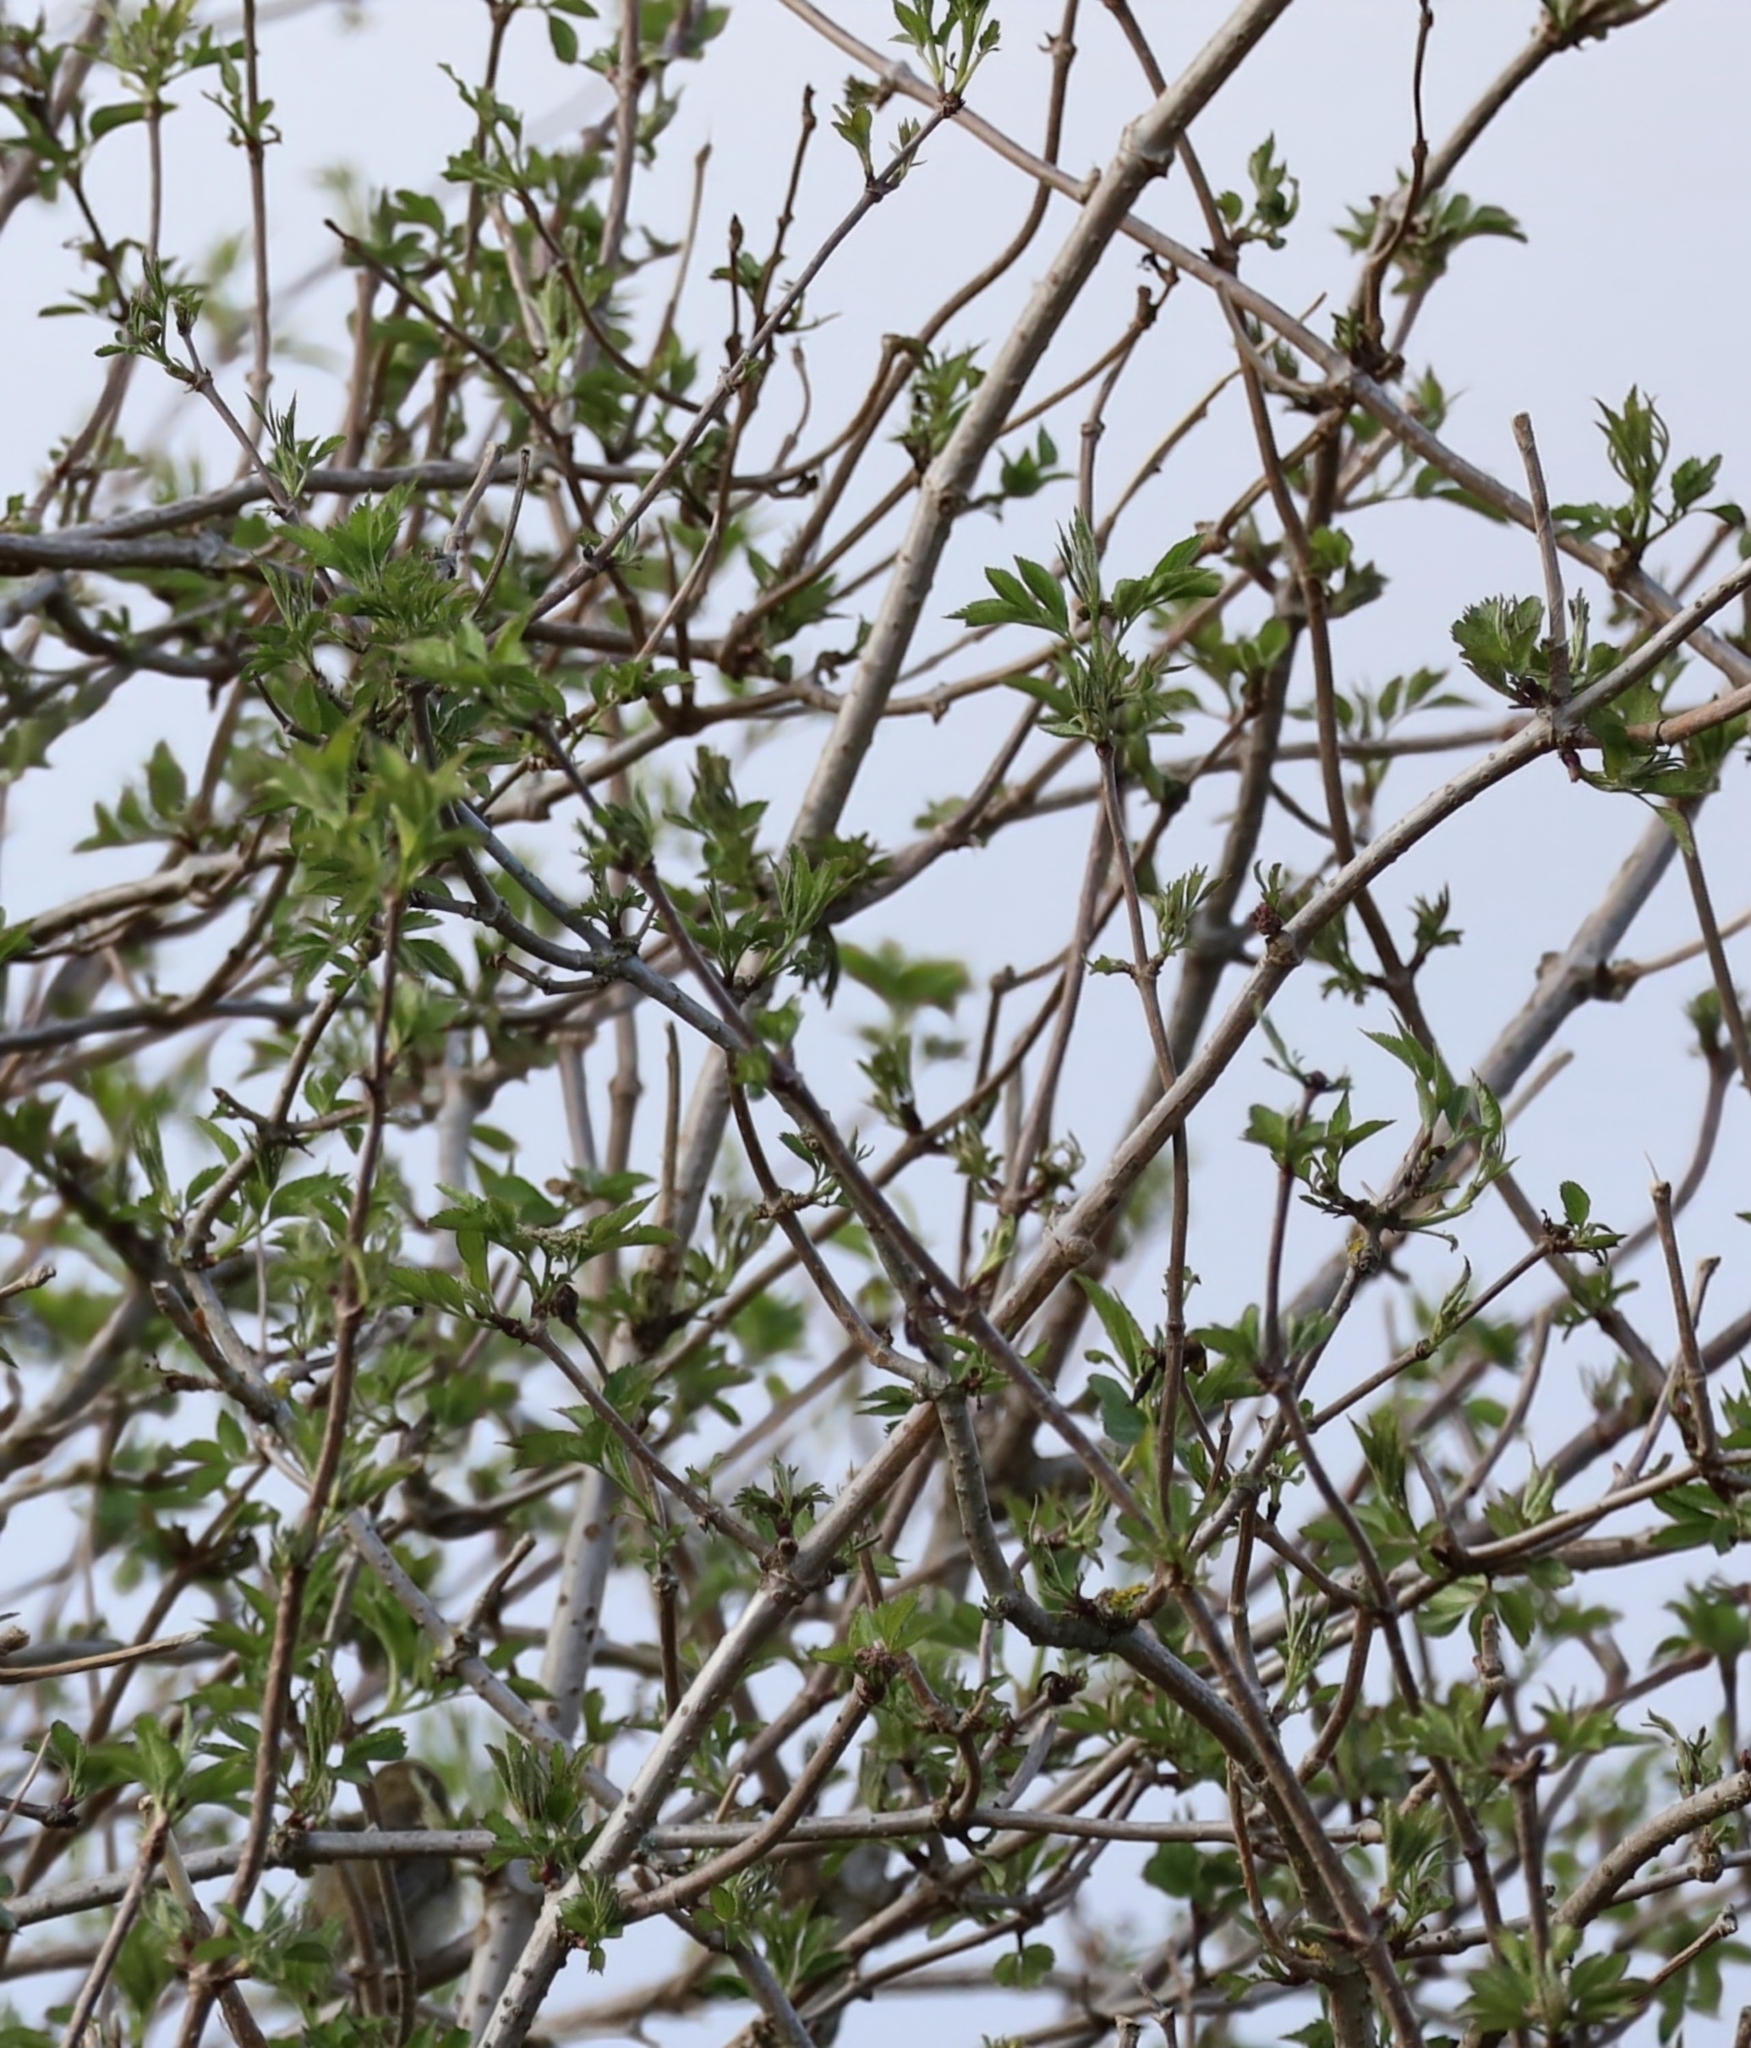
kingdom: Plantae
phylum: Tracheophyta
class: Magnoliopsida
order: Dipsacales
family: Viburnaceae
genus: Sambucus
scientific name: Sambucus nigra
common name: Elder
